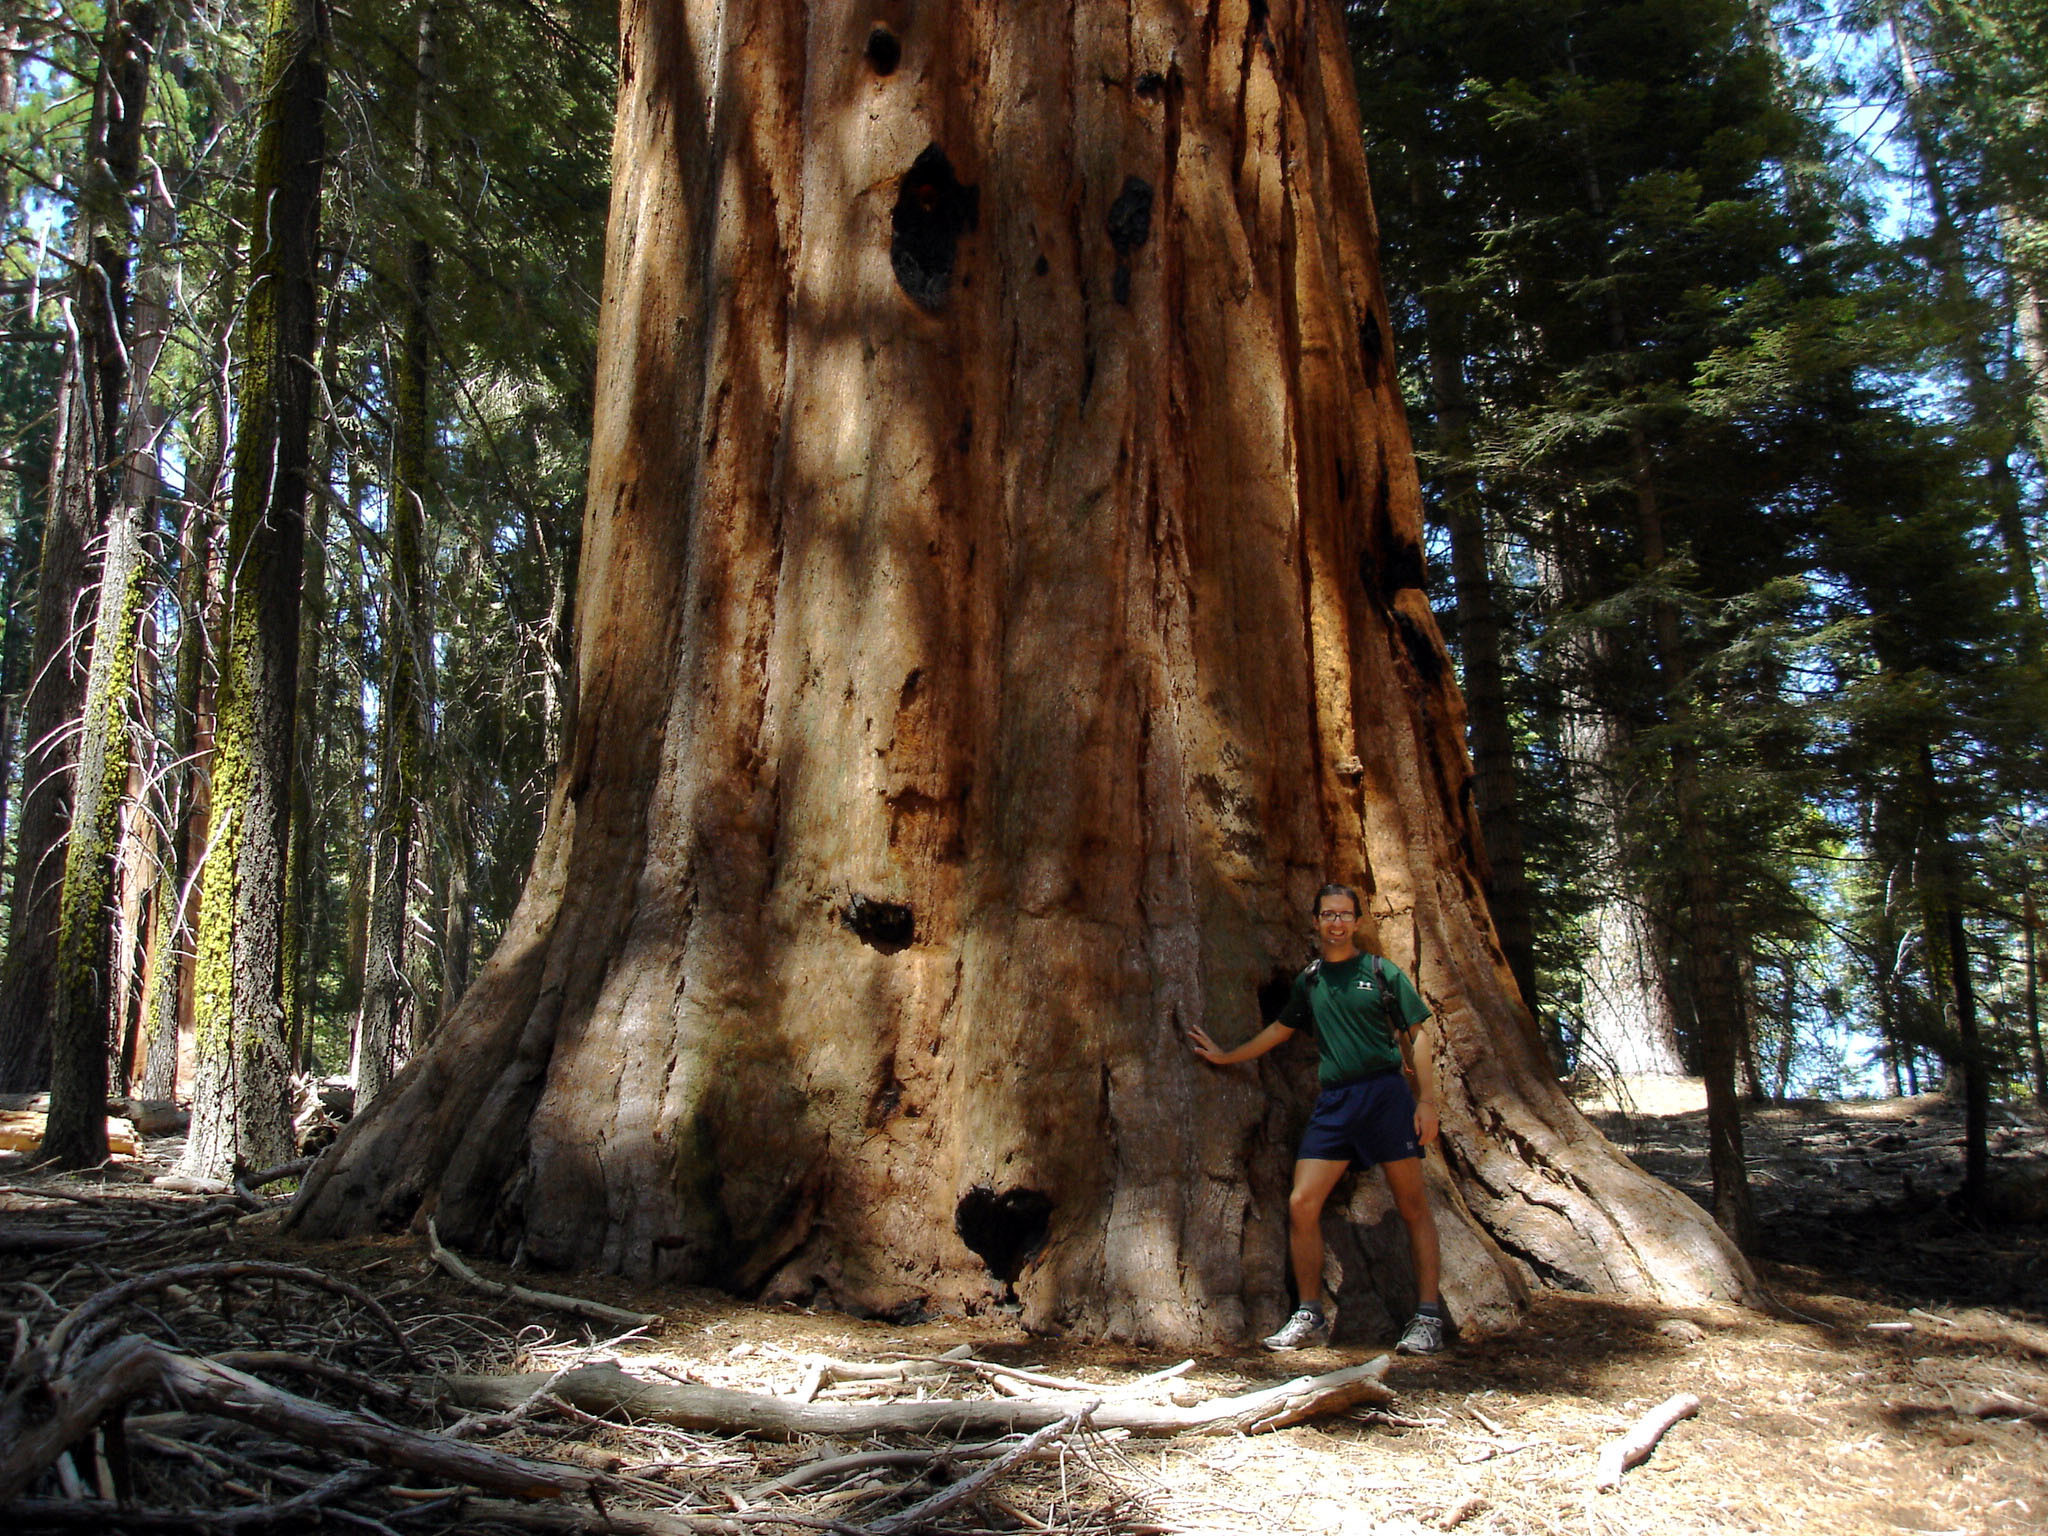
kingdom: Plantae
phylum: Tracheophyta
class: Pinopsida
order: Pinales
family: Cupressaceae
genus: Sequoiadendron
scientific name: Sequoiadendron giganteum
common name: Wellingtonia
